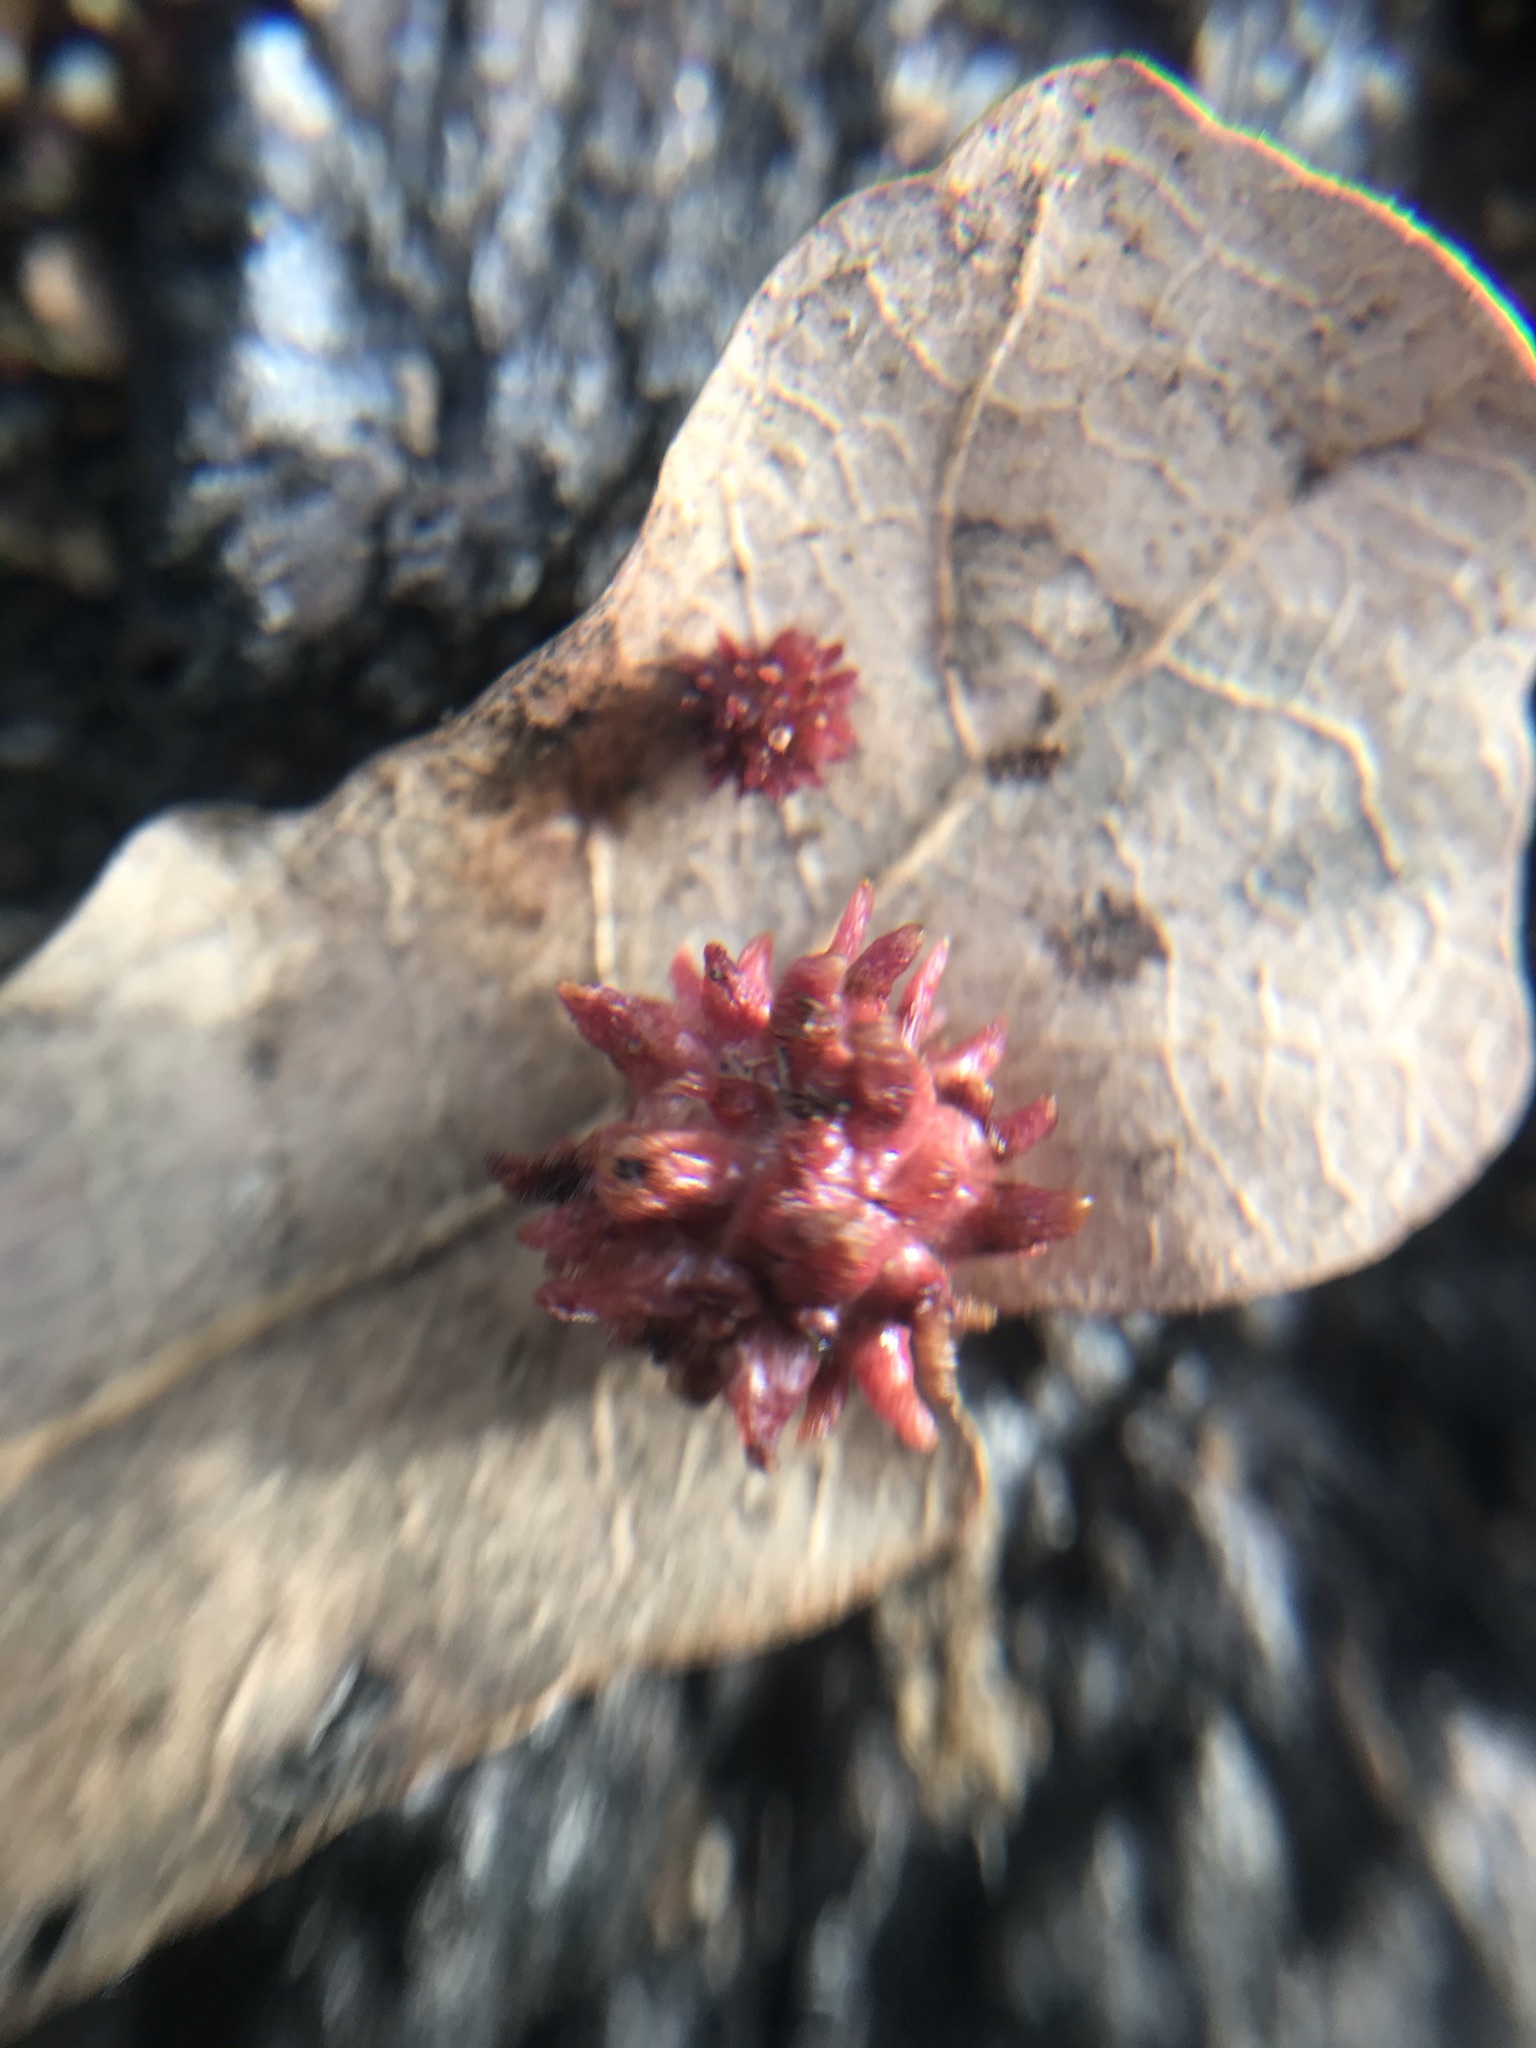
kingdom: Animalia
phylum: Arthropoda
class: Insecta
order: Hymenoptera
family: Cynipidae
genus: Cynips
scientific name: Cynips
